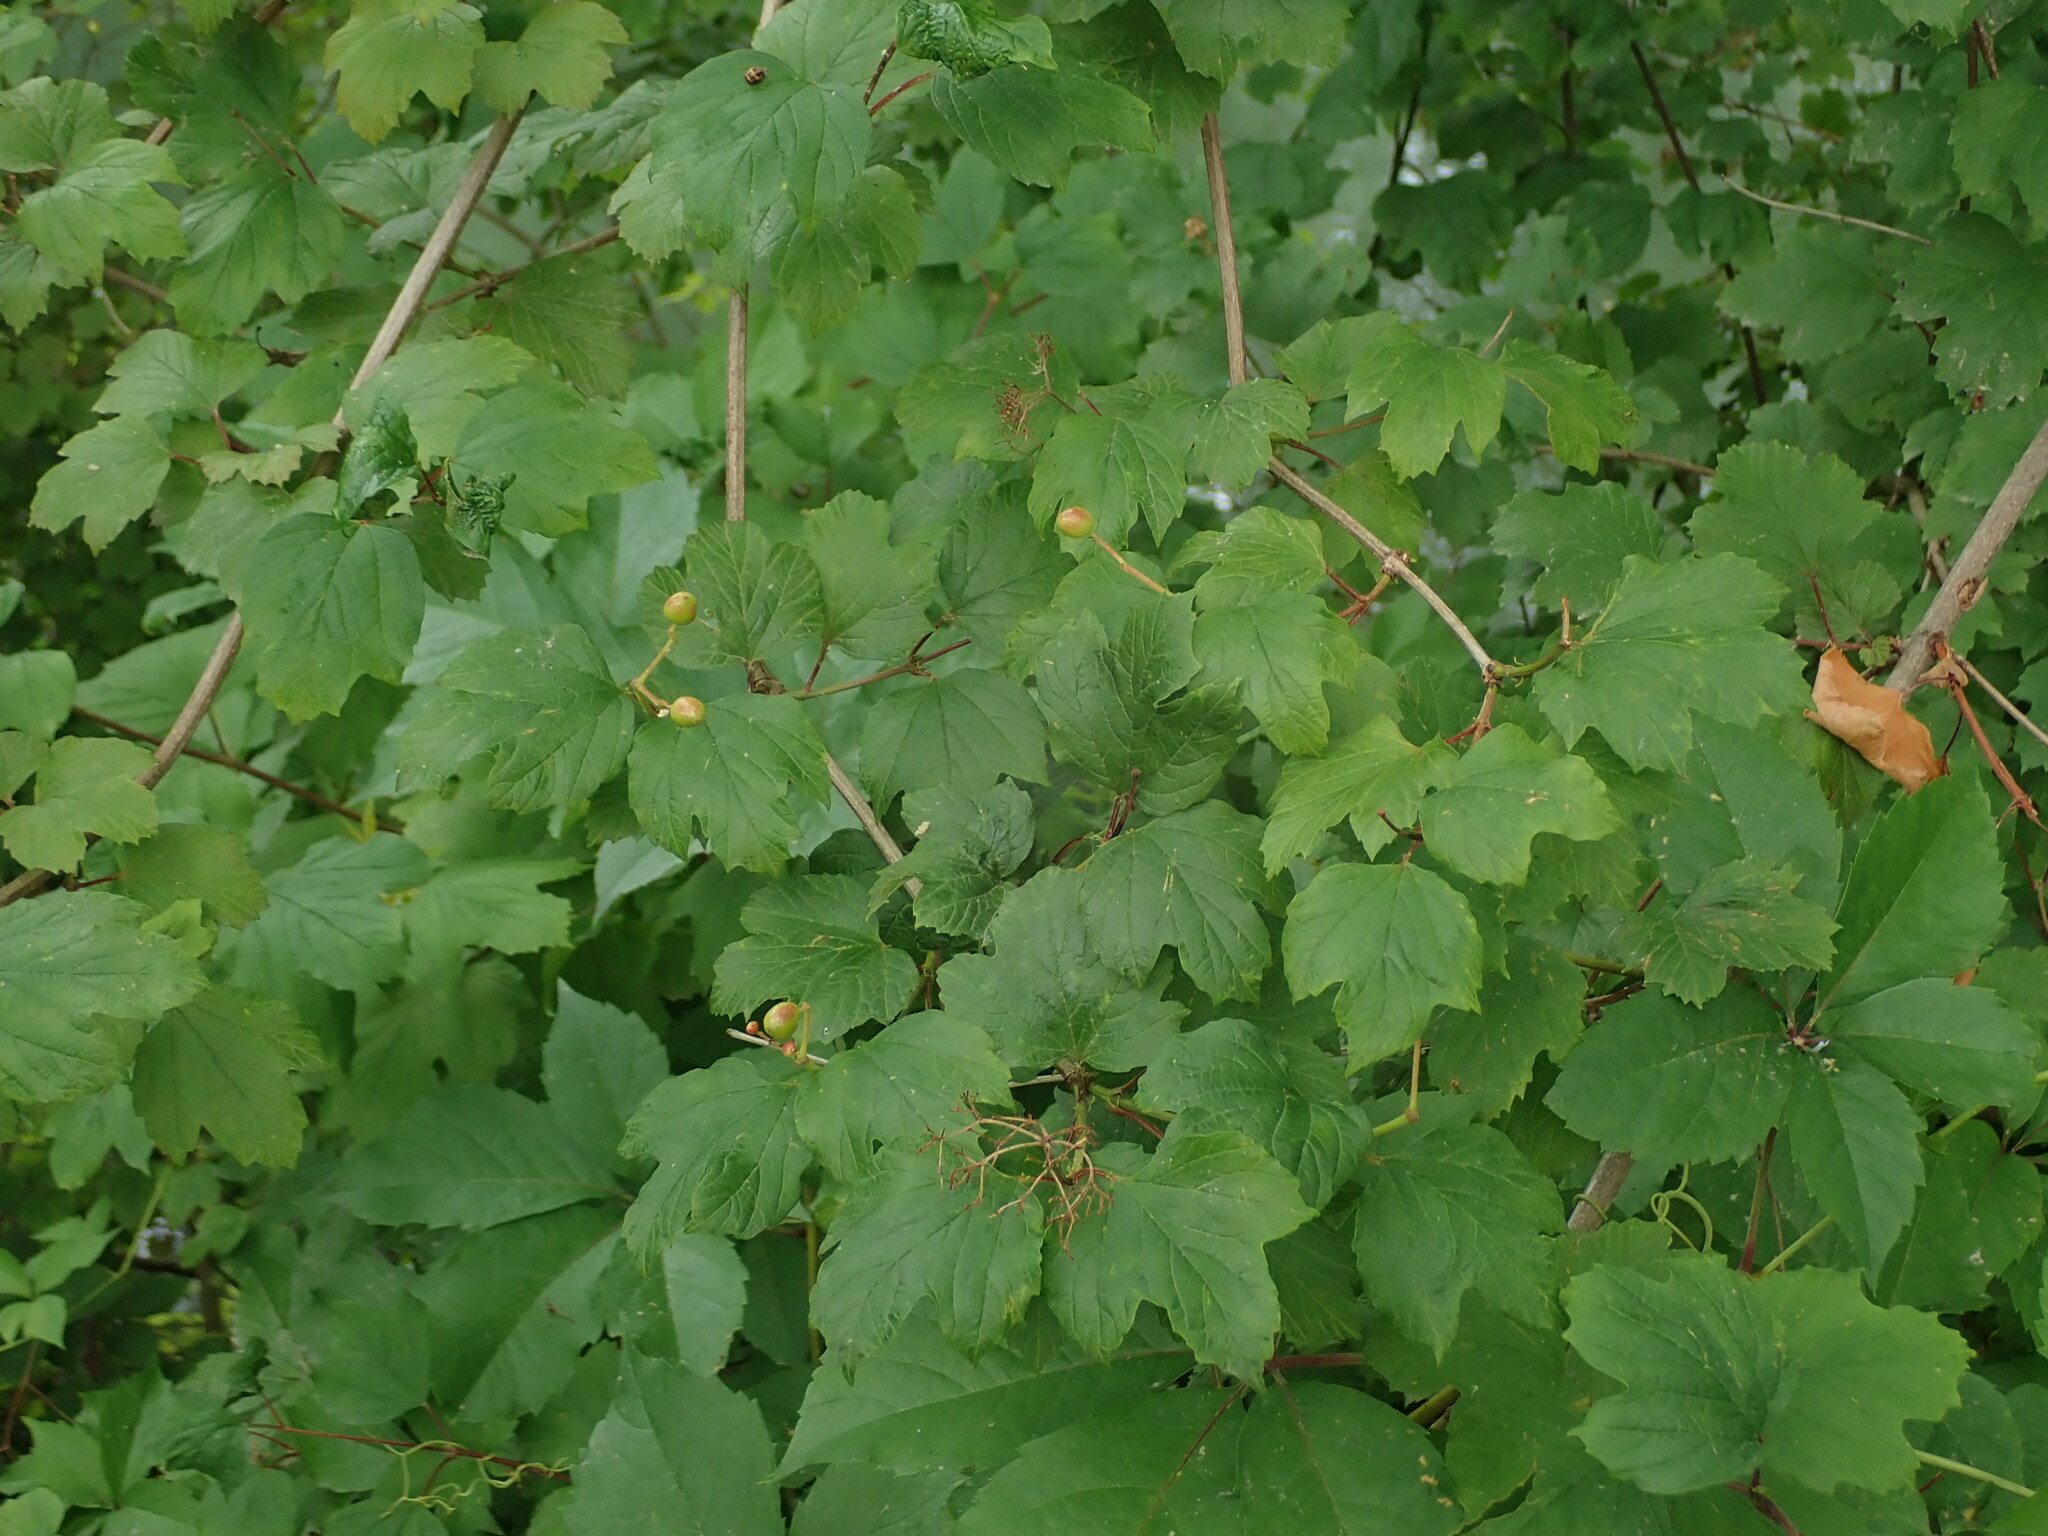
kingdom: Plantae
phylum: Tracheophyta
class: Magnoliopsida
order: Dipsacales
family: Viburnaceae
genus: Viburnum
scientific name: Viburnum opulus
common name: Guelder-rose
